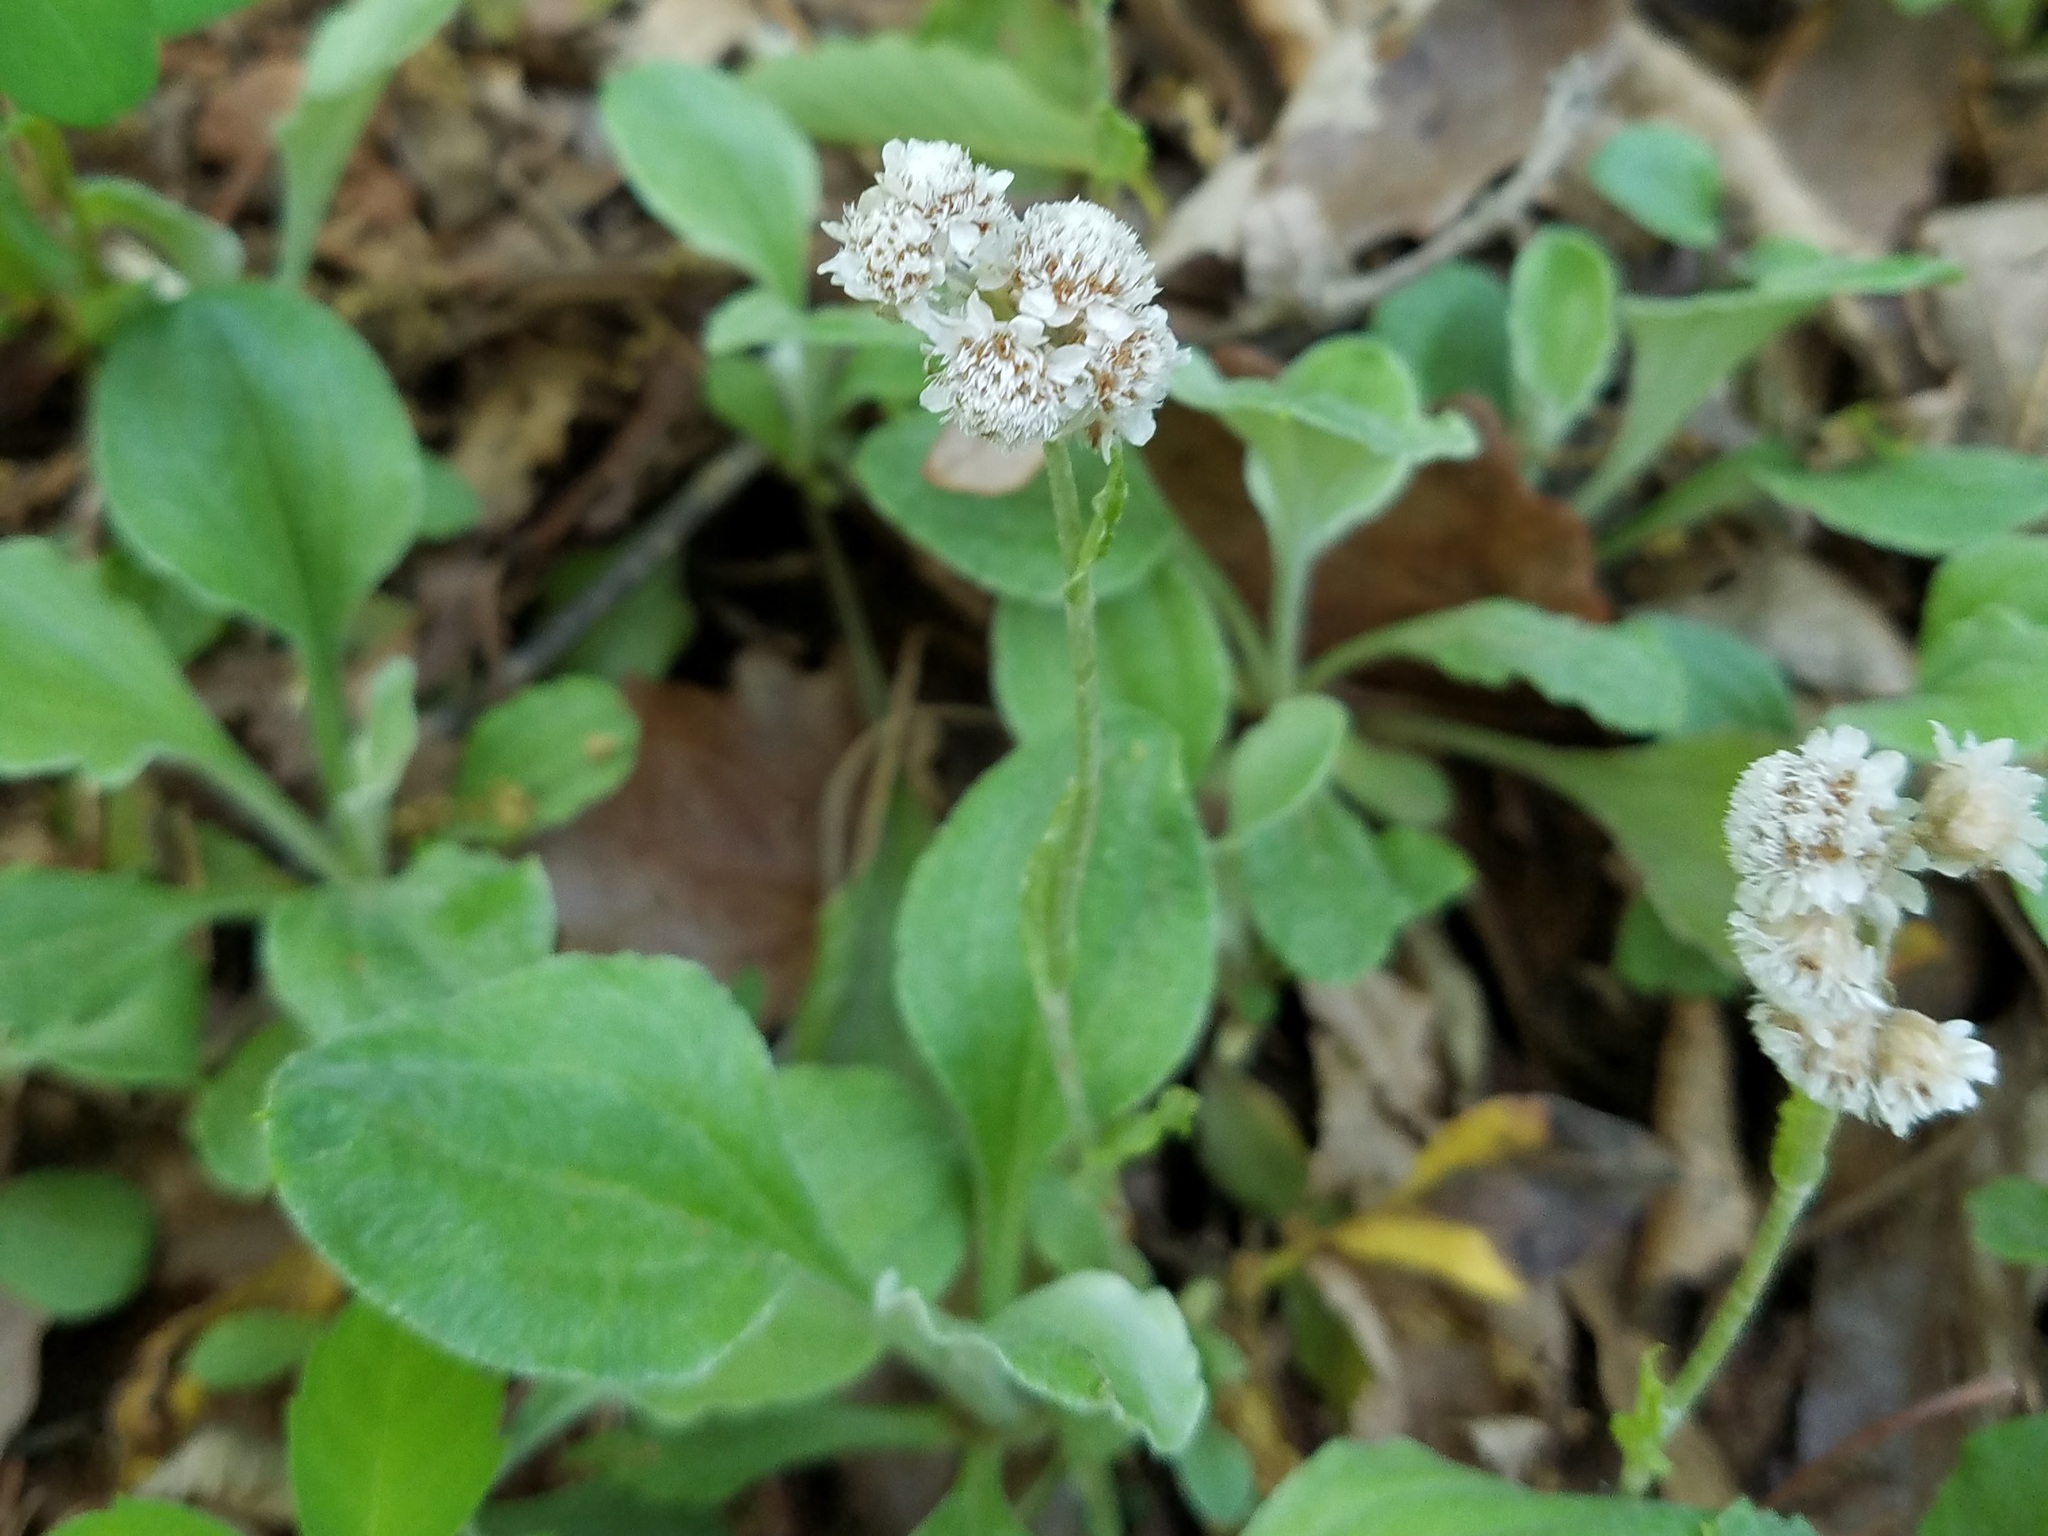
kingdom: Plantae
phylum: Tracheophyta
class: Magnoliopsida
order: Asterales
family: Asteraceae
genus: Antennaria
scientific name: Antennaria plantaginifolia
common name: Plantain-leaved pussytoes
